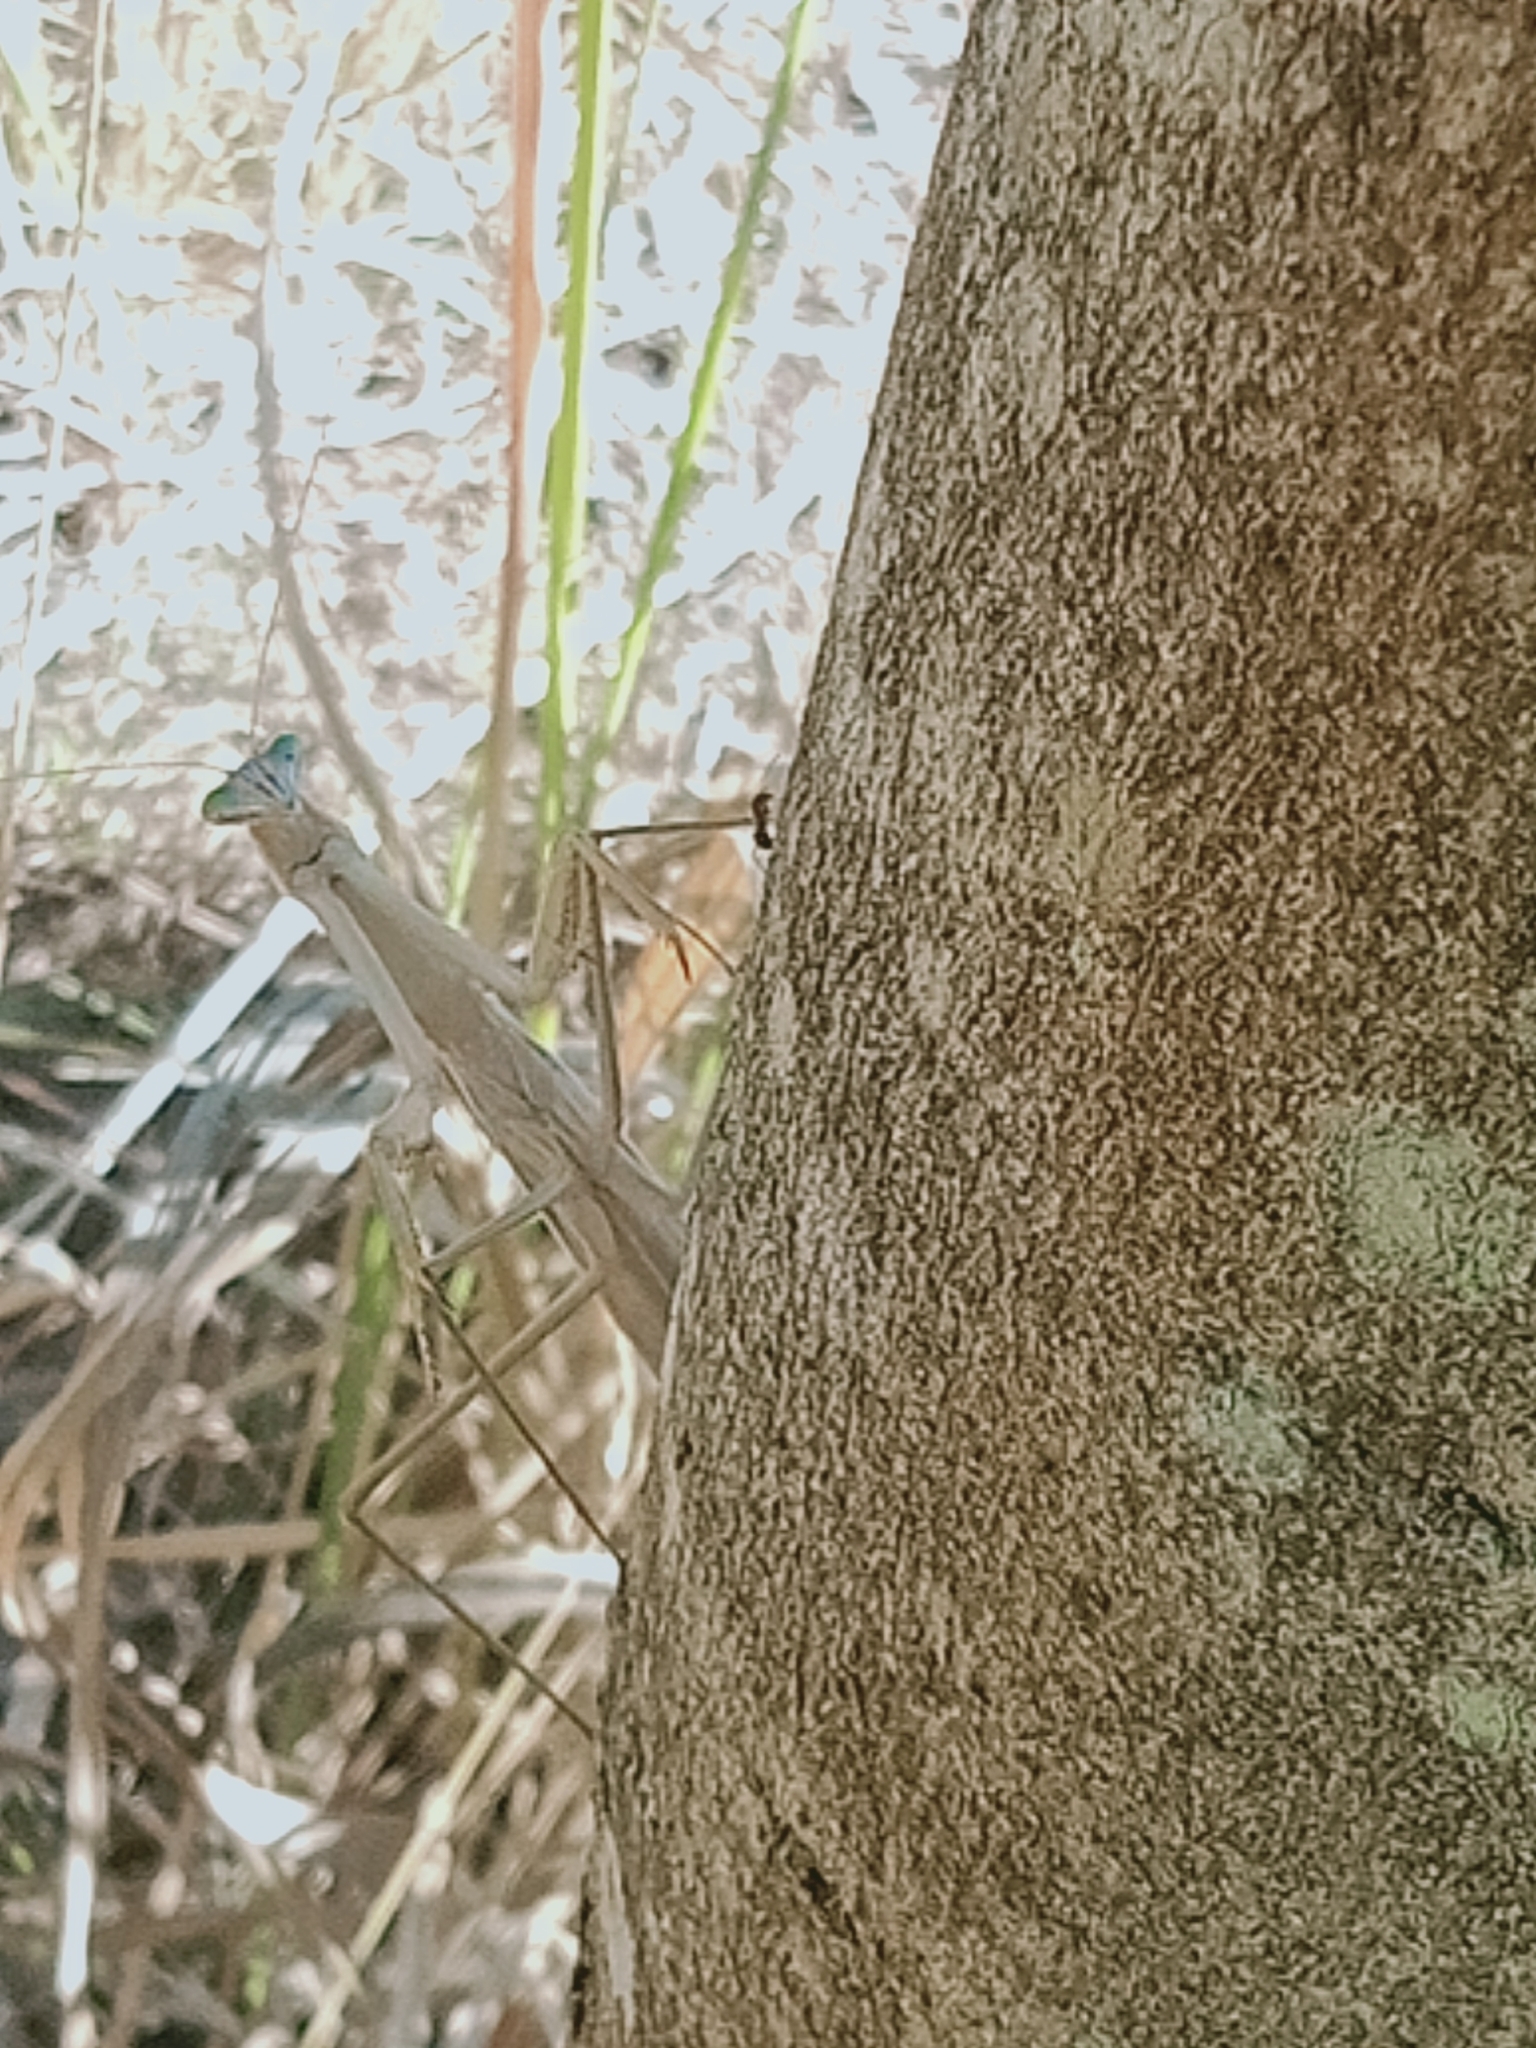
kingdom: Animalia
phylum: Arthropoda
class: Insecta
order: Mantodea
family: Mantidae
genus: Tenodera
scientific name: Tenodera australasiae
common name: Purple-winged mantis
